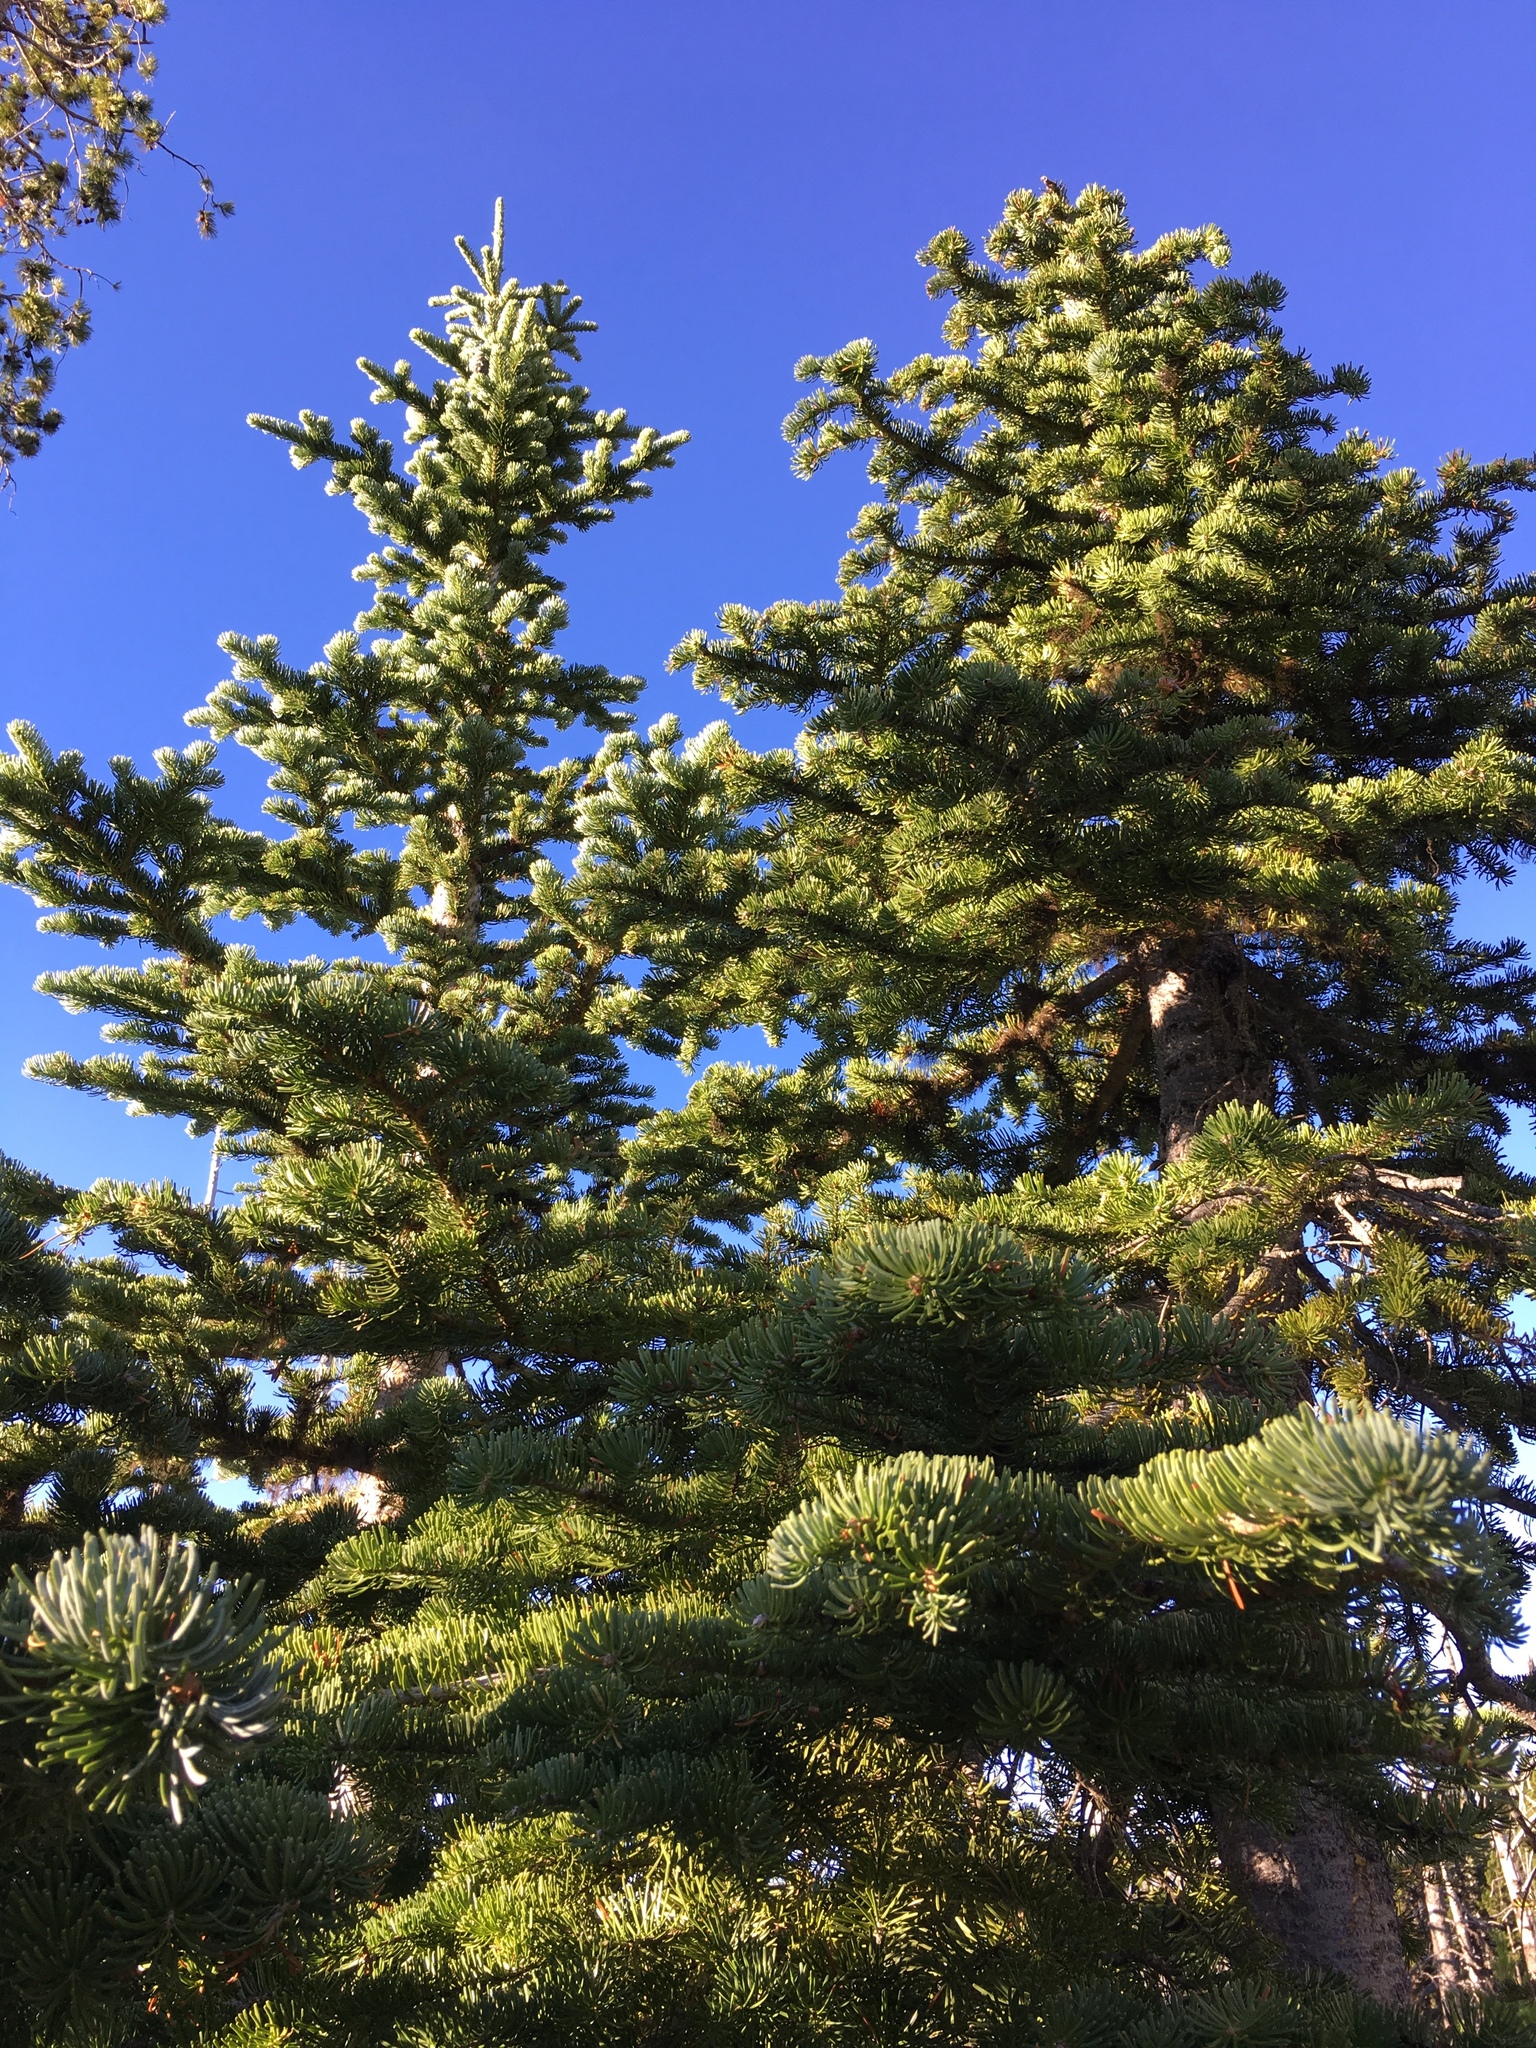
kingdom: Plantae
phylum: Tracheophyta
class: Pinopsida
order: Pinales
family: Pinaceae
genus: Abies
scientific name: Abies lasiocarpa
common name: Subalpine fir
